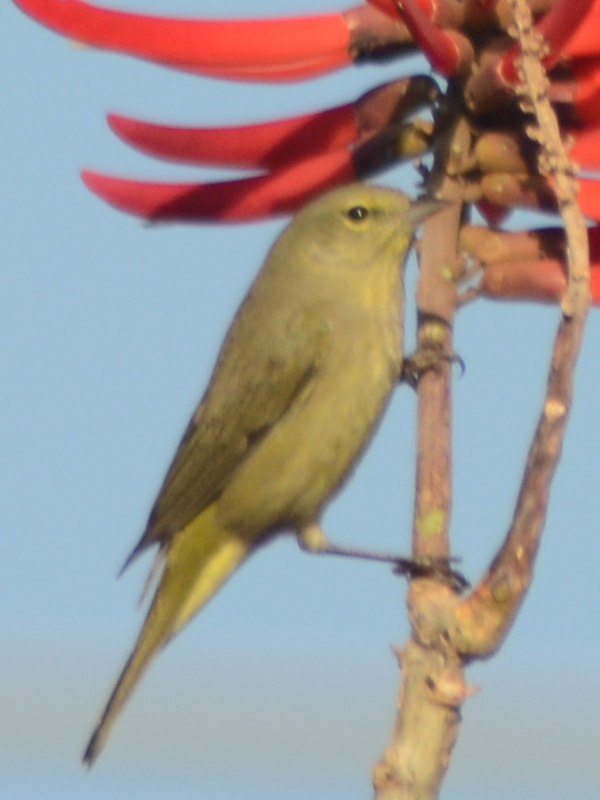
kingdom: Animalia
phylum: Chordata
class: Aves
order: Passeriformes
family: Parulidae
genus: Leiothlypis
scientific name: Leiothlypis celata
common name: Orange-crowned warbler
